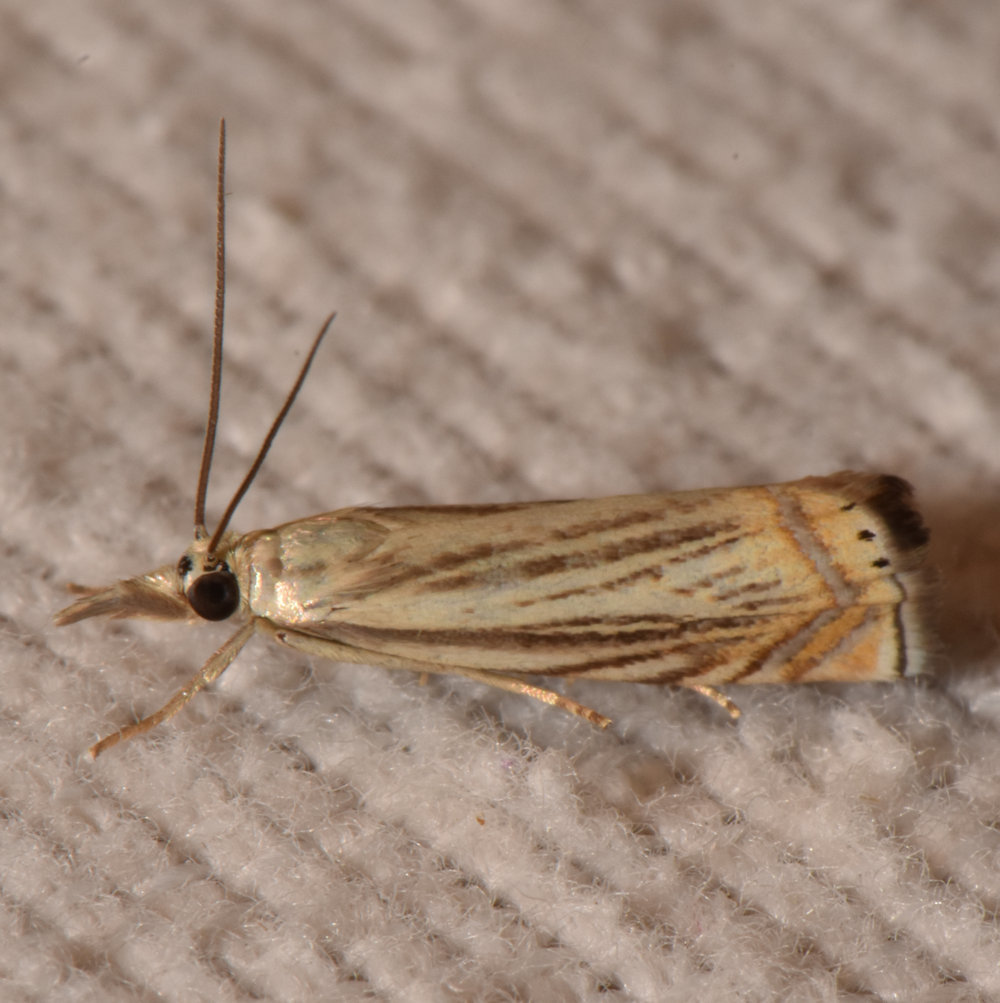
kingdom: Animalia
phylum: Arthropoda
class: Insecta
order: Lepidoptera
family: Crambidae
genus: Chrysoteuchia
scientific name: Chrysoteuchia topiarius
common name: Topiary grass-veneer
